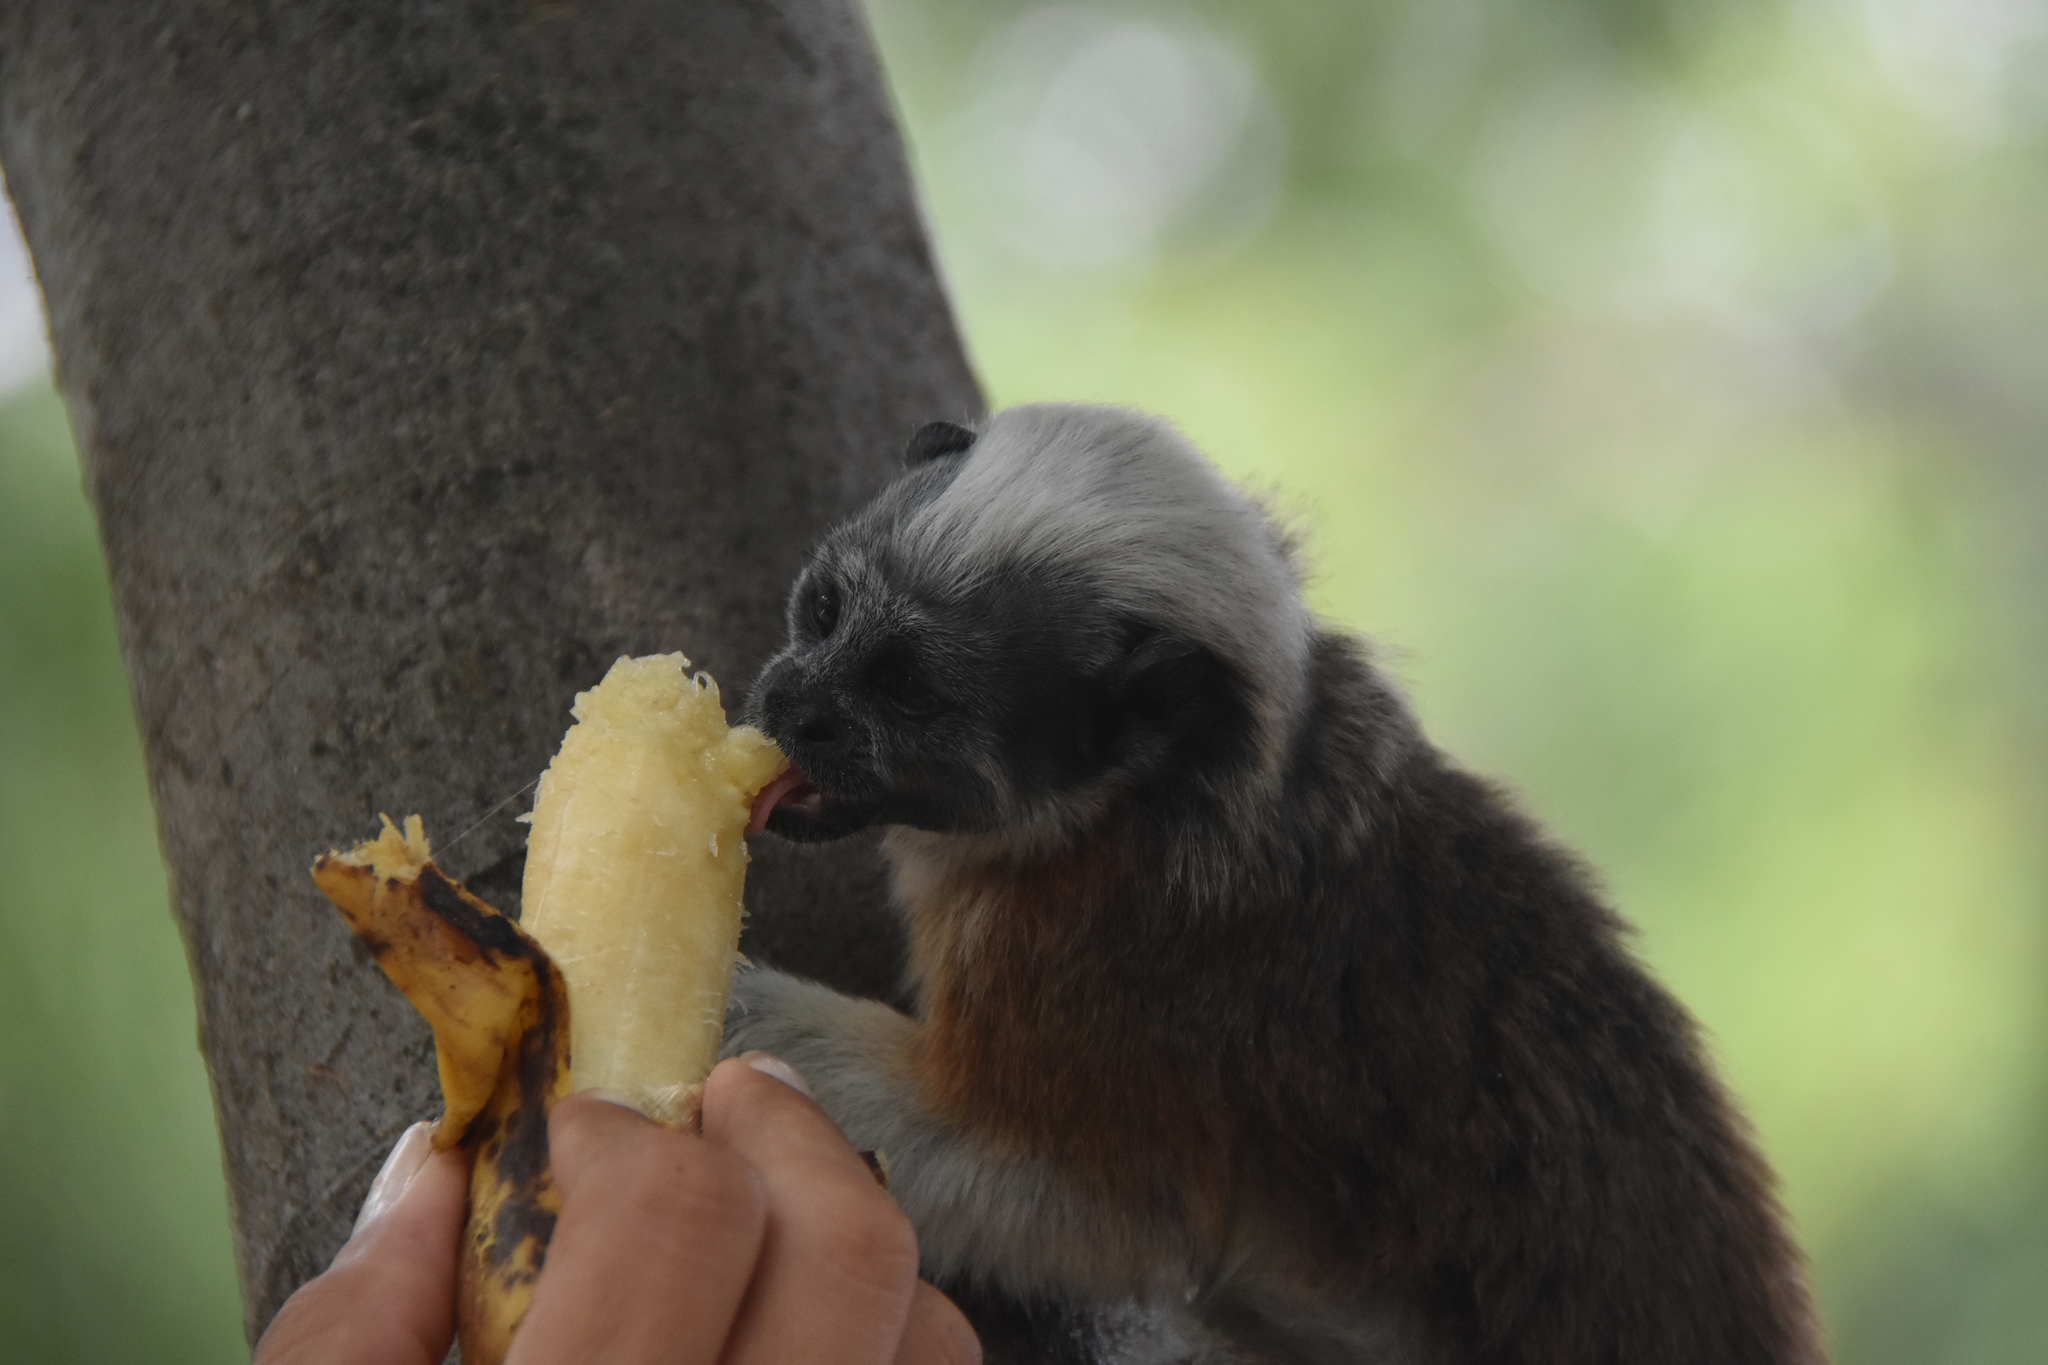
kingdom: Animalia
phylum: Chordata
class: Mammalia
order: Primates
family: Callitrichidae
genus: Saguinus
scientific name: Saguinus oedipus
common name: Cottontop tamarin
